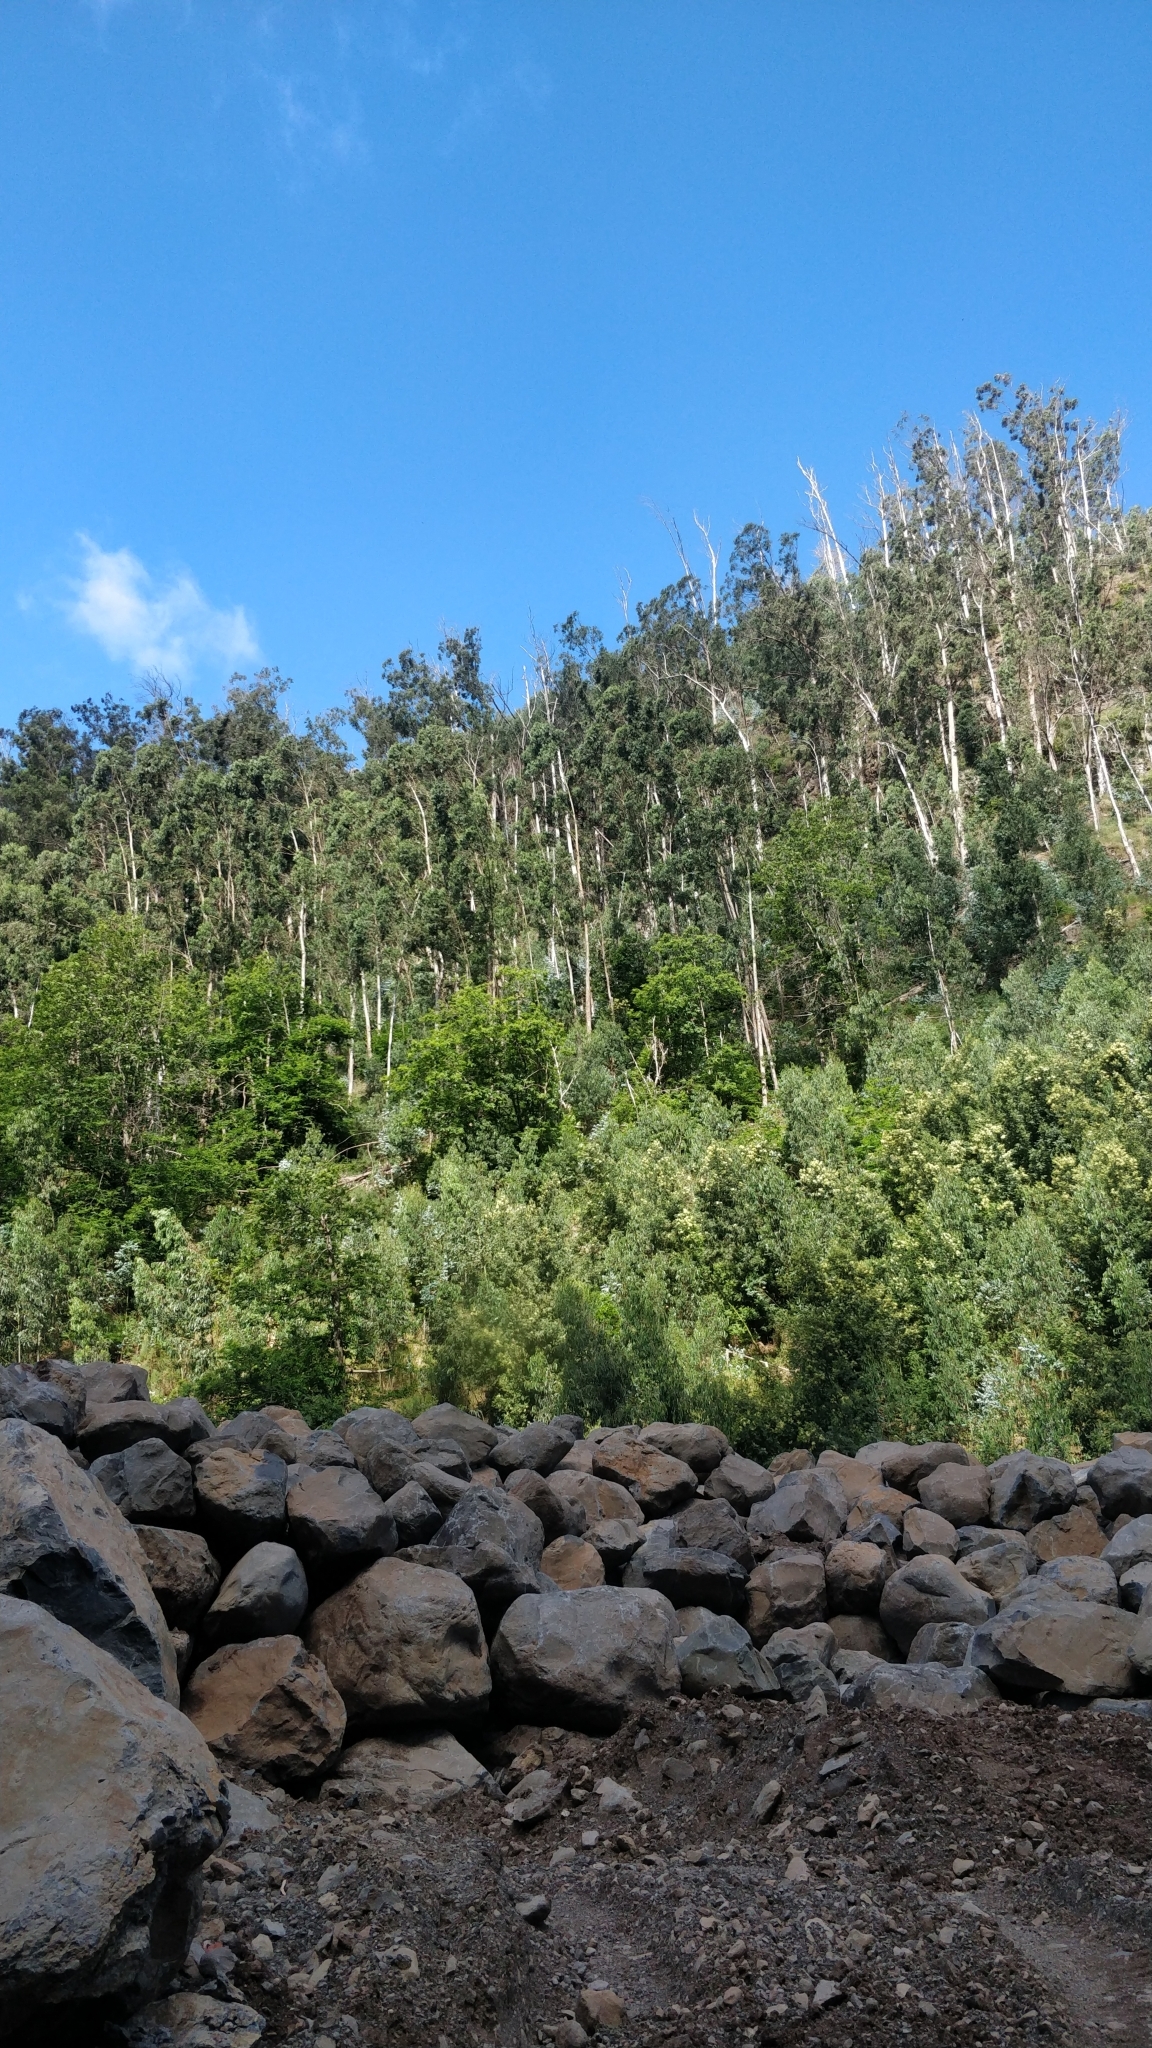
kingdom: Plantae
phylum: Tracheophyta
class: Magnoliopsida
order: Myrtales
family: Myrtaceae
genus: Eucalyptus
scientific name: Eucalyptus globulus
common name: Southern blue-gum
